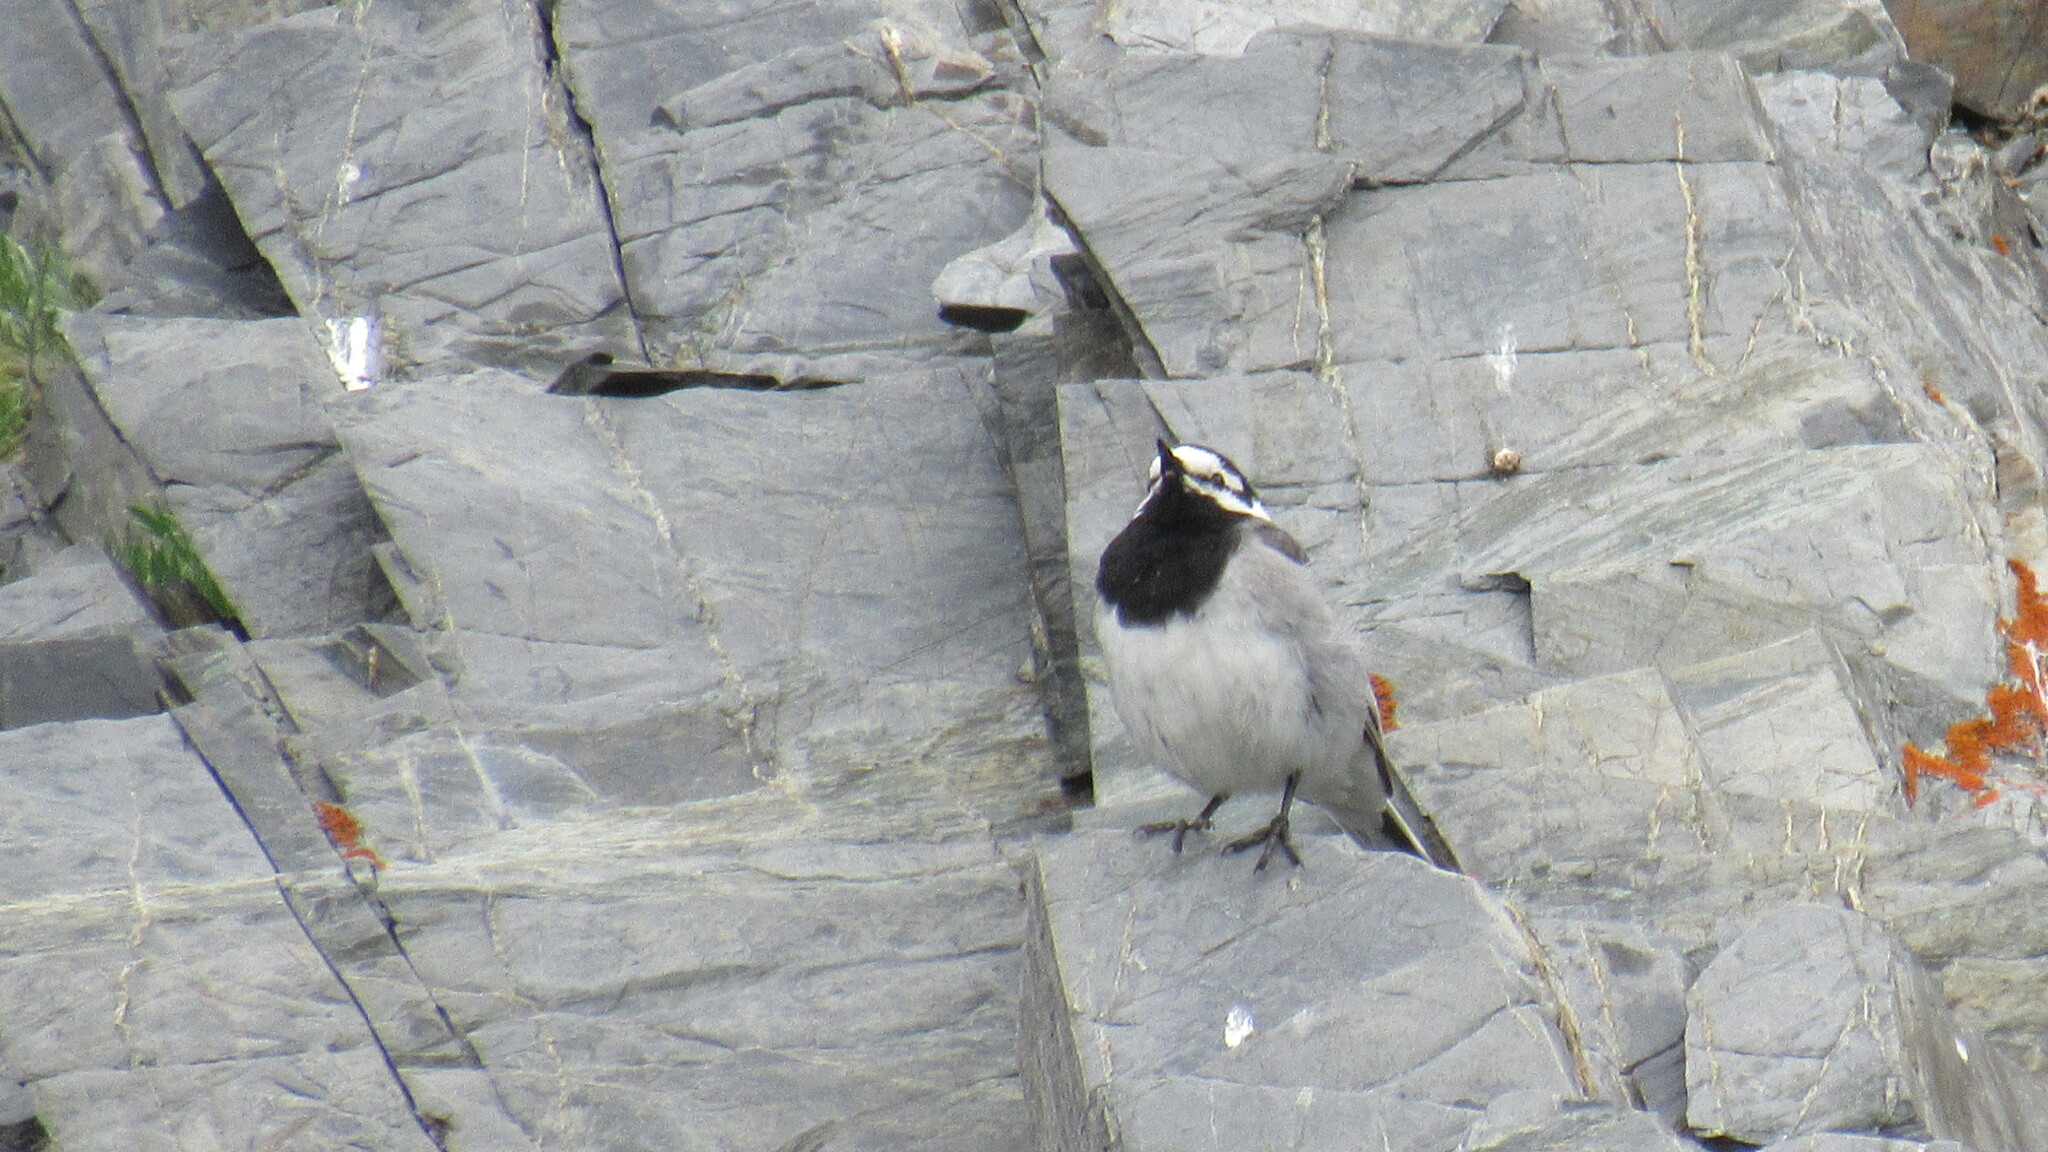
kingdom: Animalia
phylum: Chordata
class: Aves
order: Passeriformes
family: Motacillidae
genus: Motacilla
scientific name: Motacilla alba
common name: White wagtail
